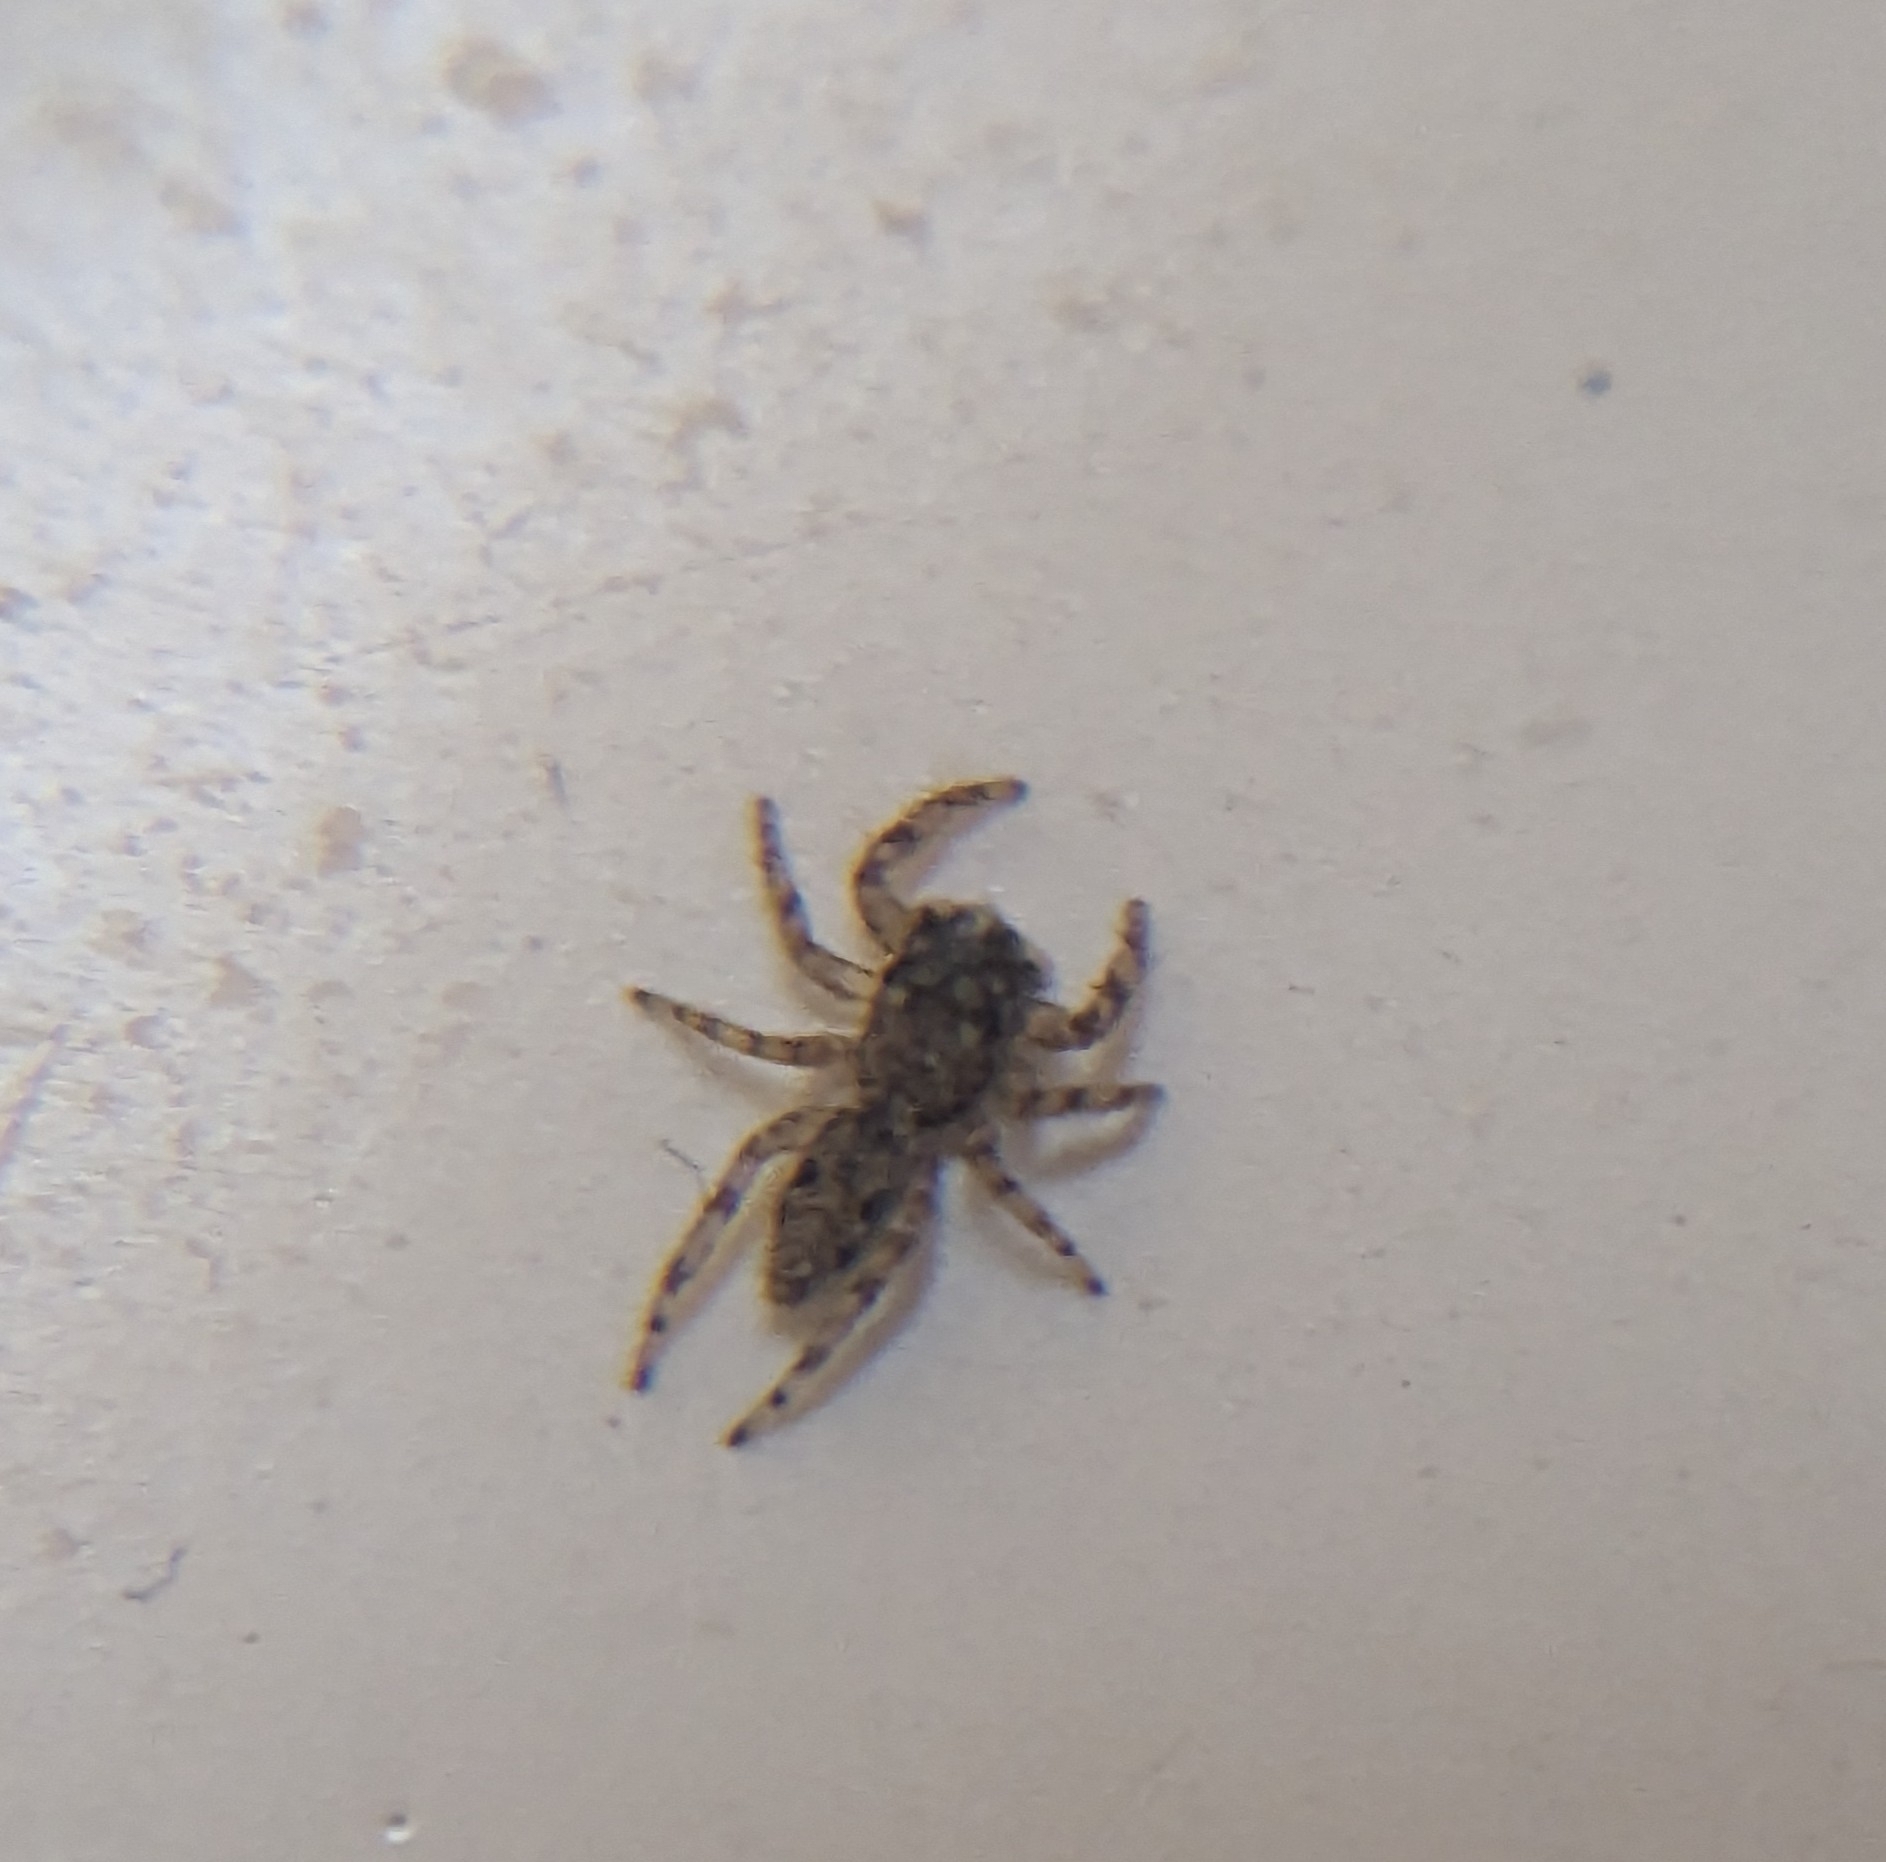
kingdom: Animalia
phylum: Arthropoda
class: Arachnida
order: Araneae
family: Salticidae
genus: Platycryptus
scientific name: Platycryptus undatus
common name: Tan jumping spider
